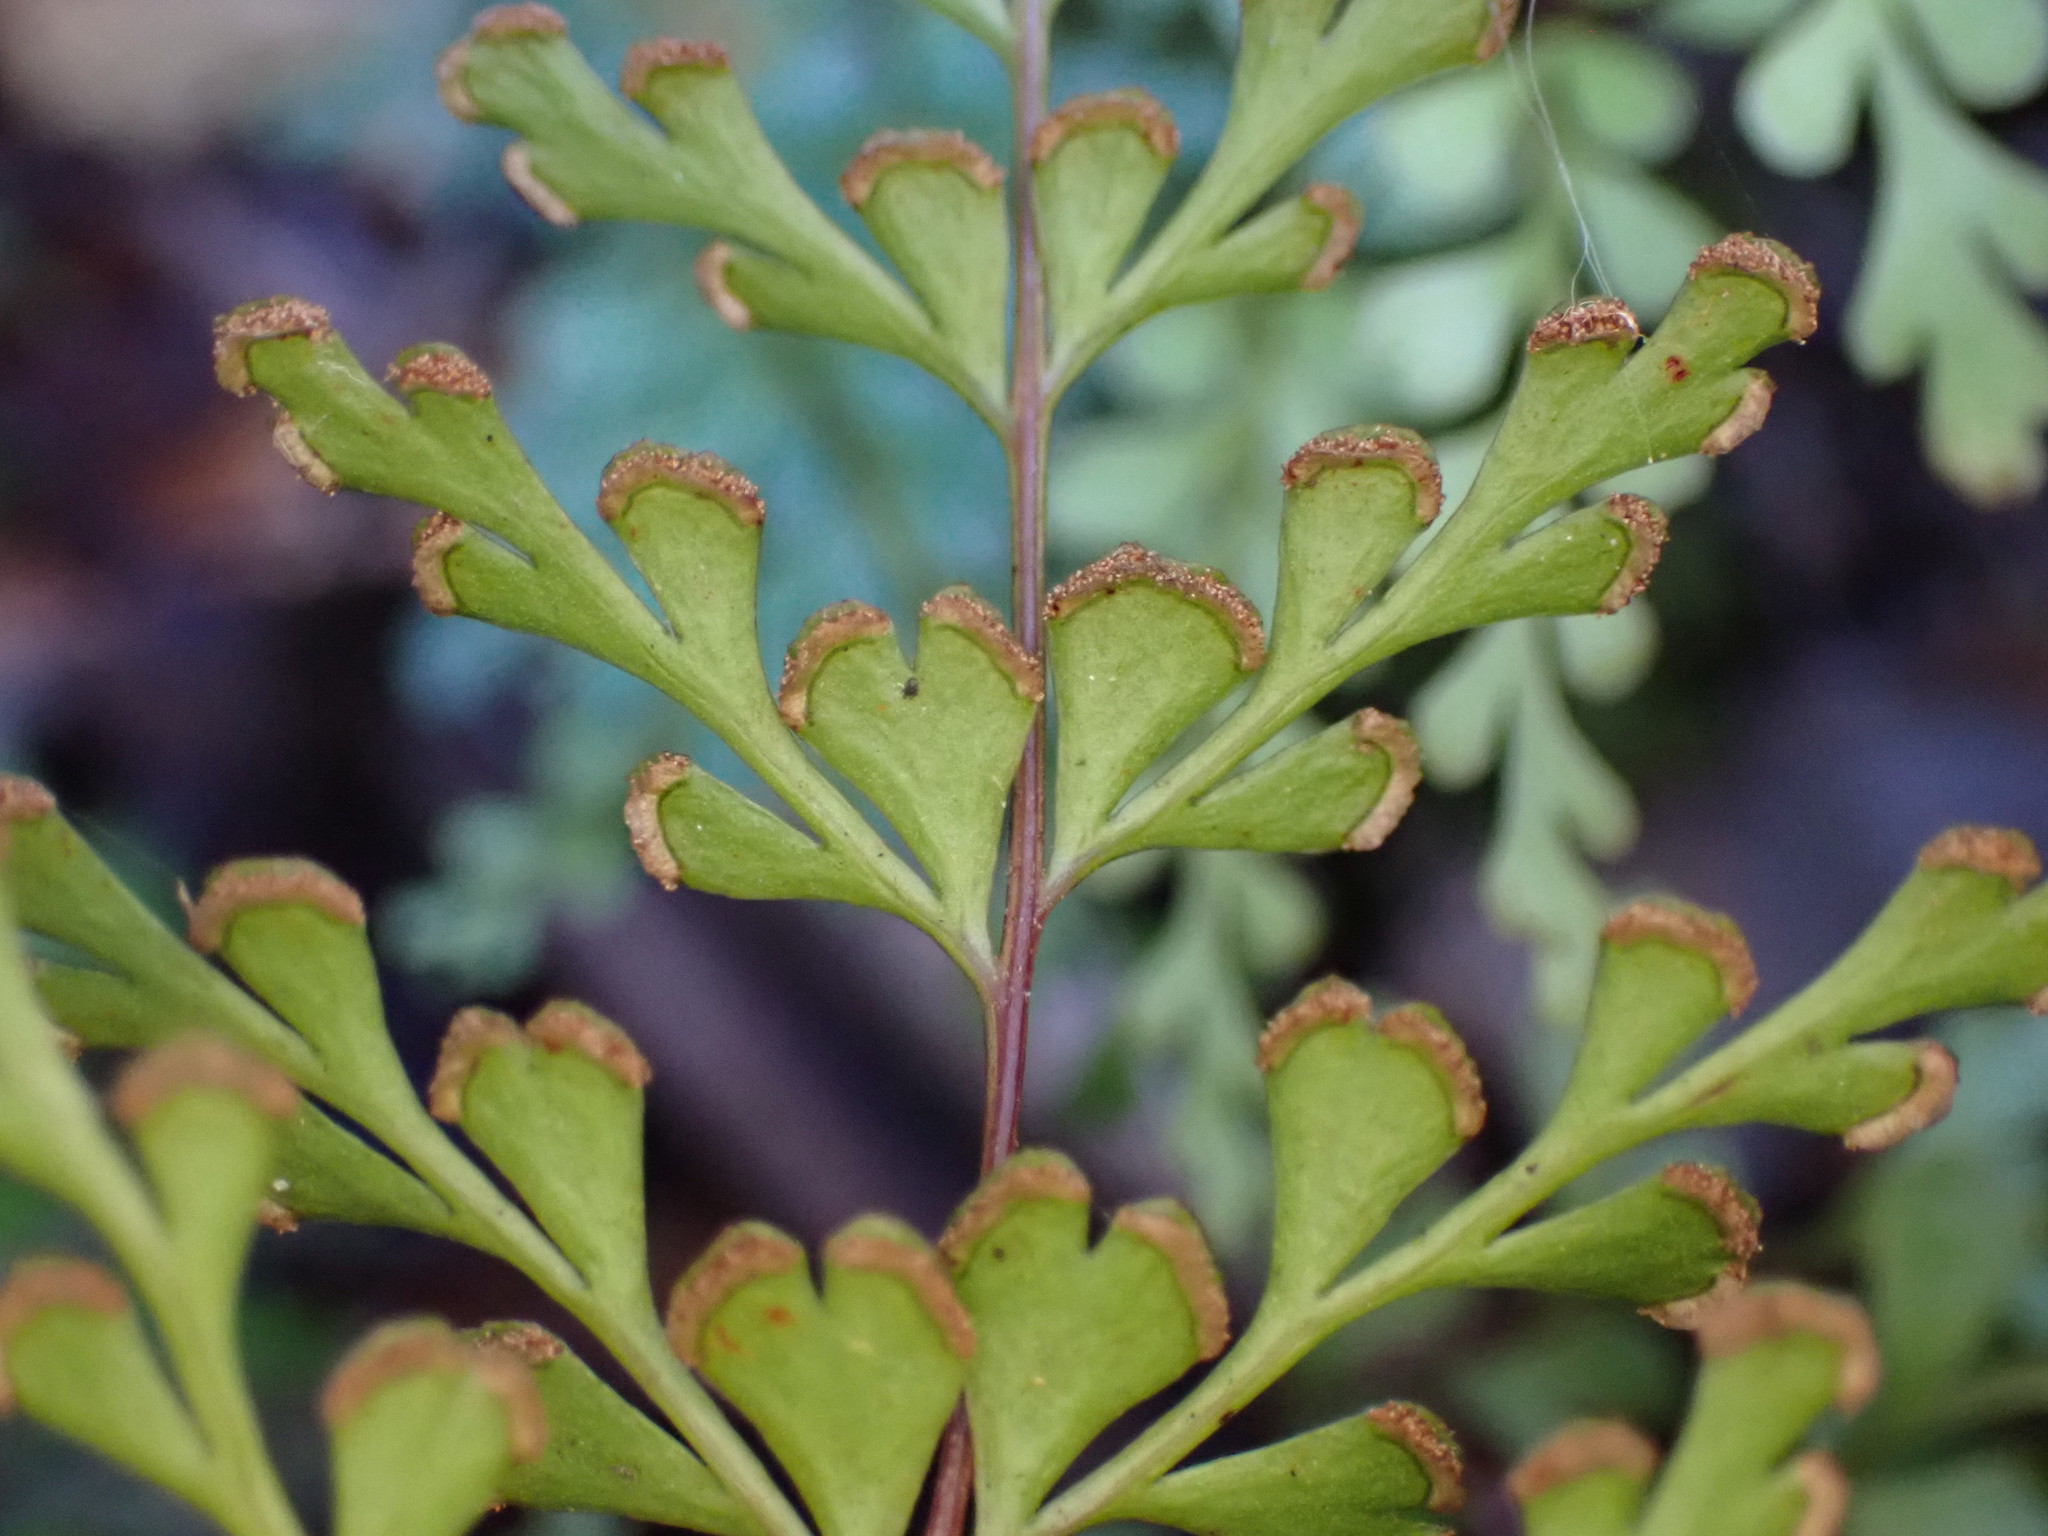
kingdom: Plantae
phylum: Tracheophyta
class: Polypodiopsida
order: Polypodiales
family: Lindsaeaceae
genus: Lindsaea
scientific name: Lindsaea trichomanoides
